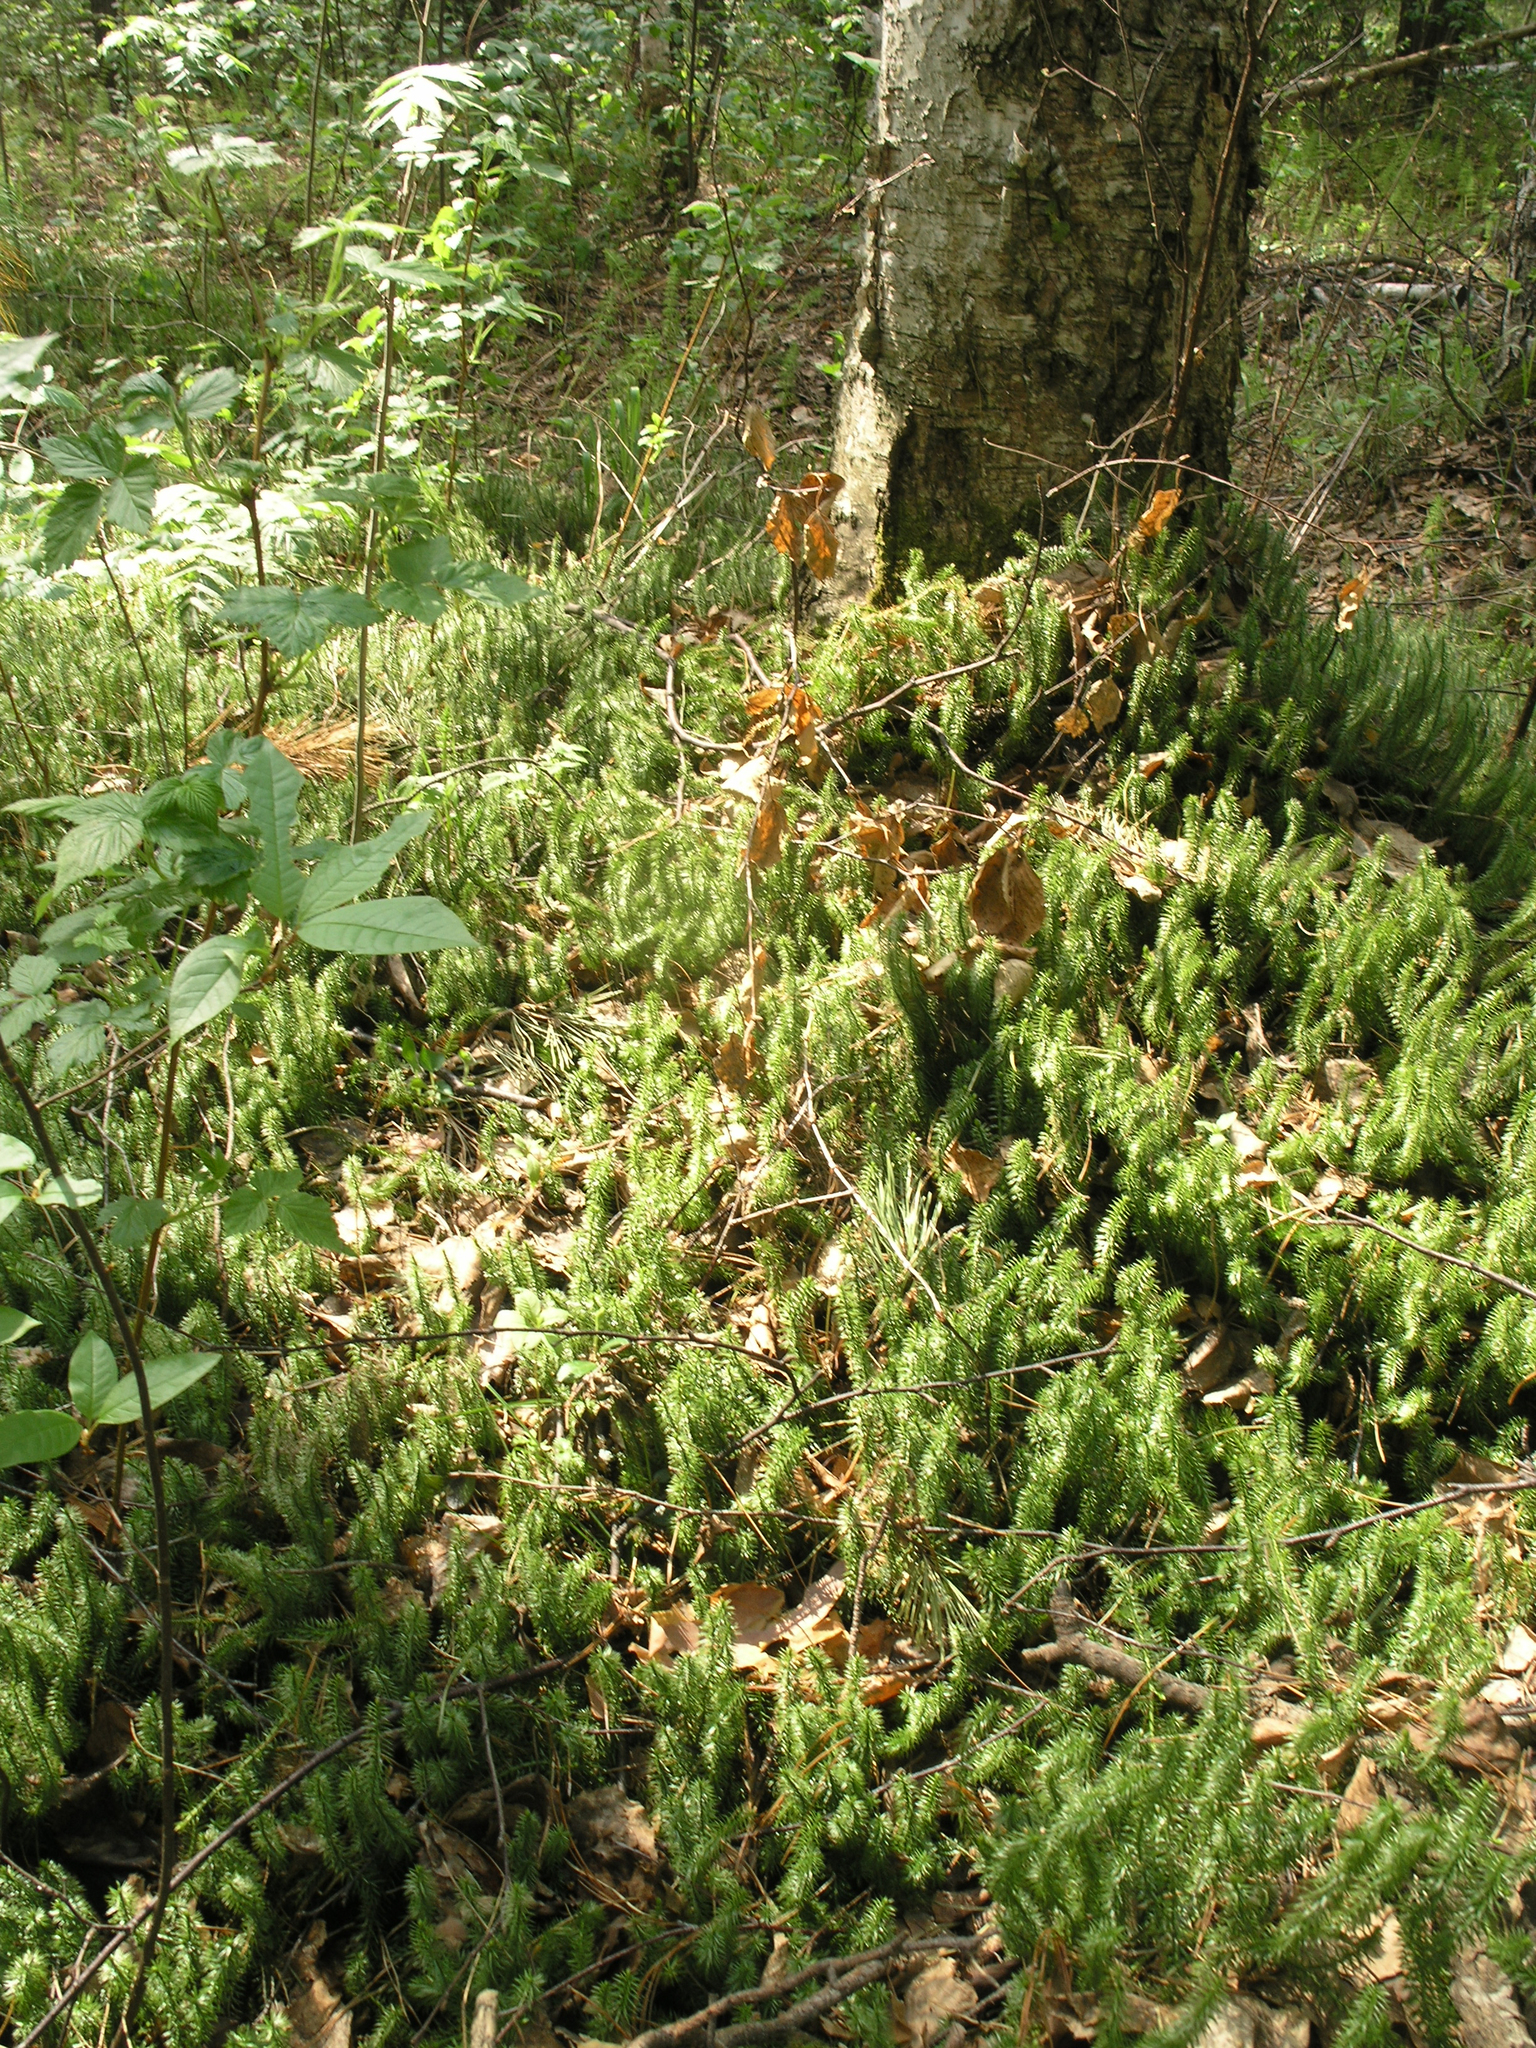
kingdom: Plantae
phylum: Tracheophyta
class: Lycopodiopsida
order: Lycopodiales
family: Lycopodiaceae
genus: Spinulum
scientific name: Spinulum annotinum
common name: Interrupted club-moss
